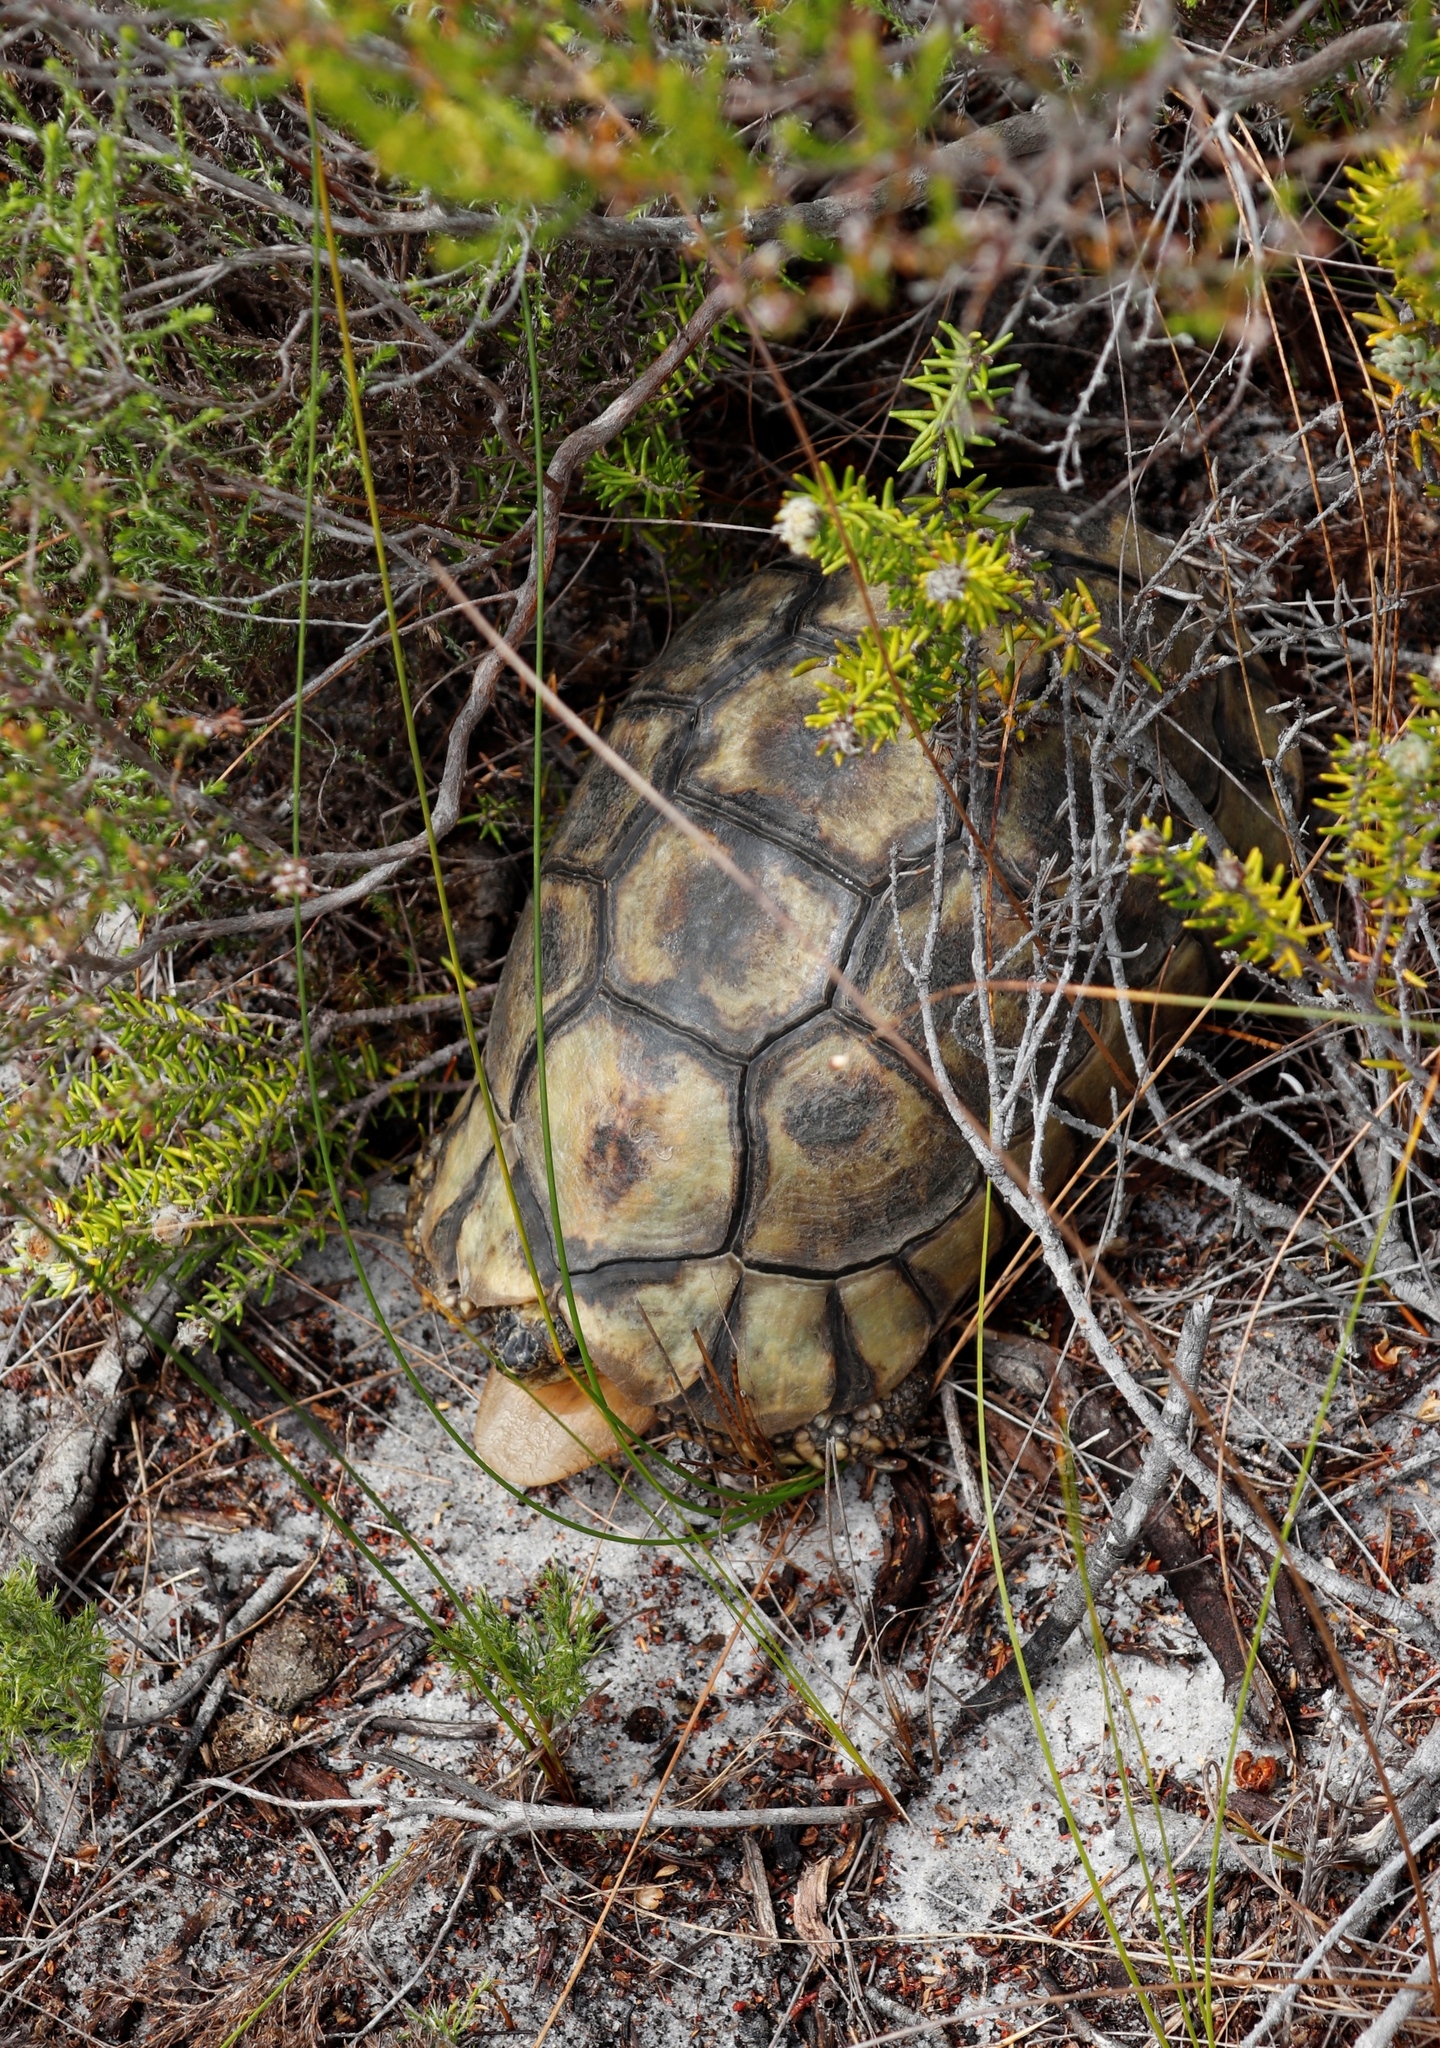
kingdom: Animalia
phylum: Chordata
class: Testudines
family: Testudinidae
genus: Chersina
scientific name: Chersina angulata
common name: South african bowsprit tortoise
